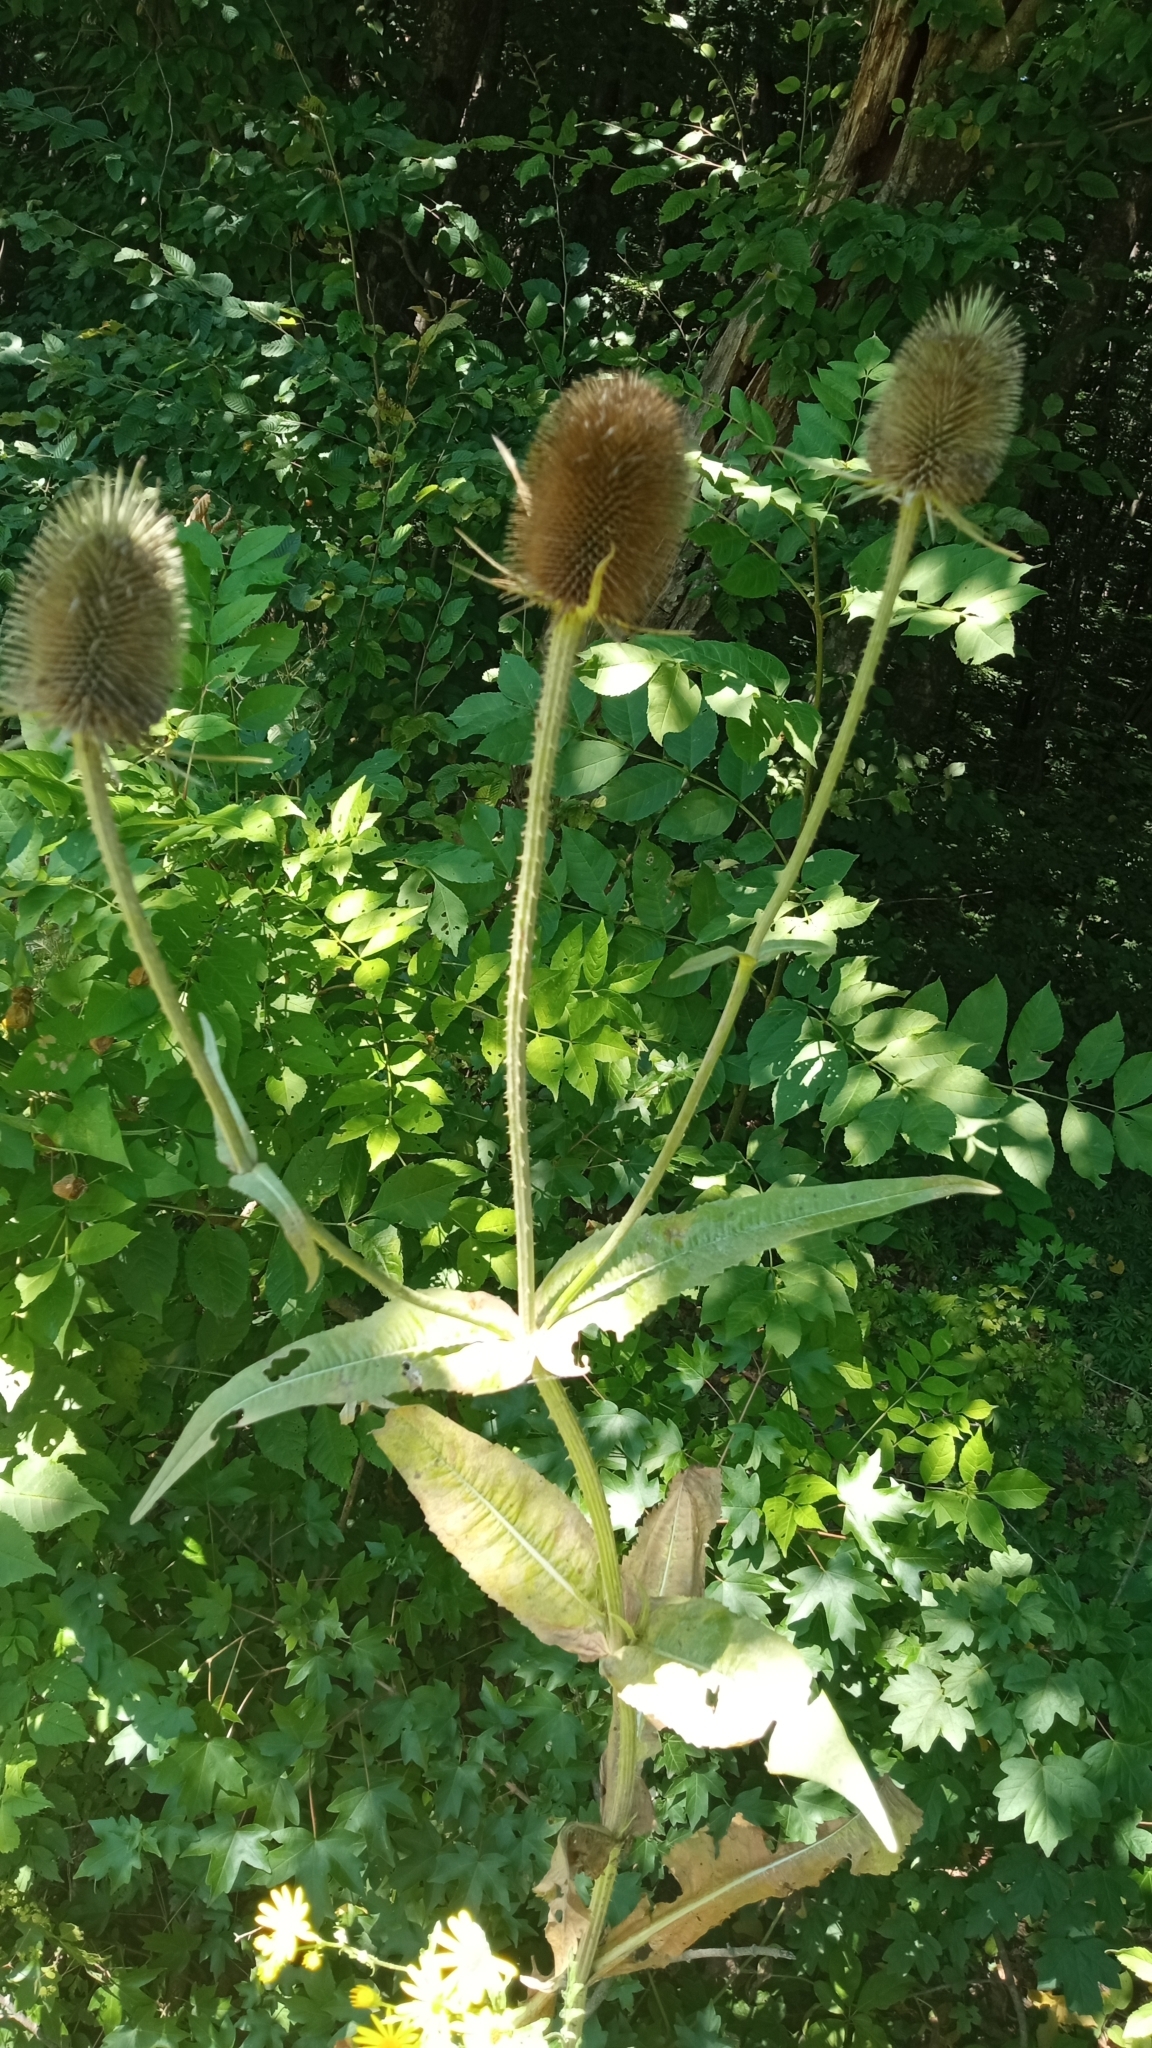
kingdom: Plantae
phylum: Tracheophyta
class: Magnoliopsida
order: Dipsacales
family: Caprifoliaceae
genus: Dipsacus
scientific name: Dipsacus fullonum
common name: Teasel
